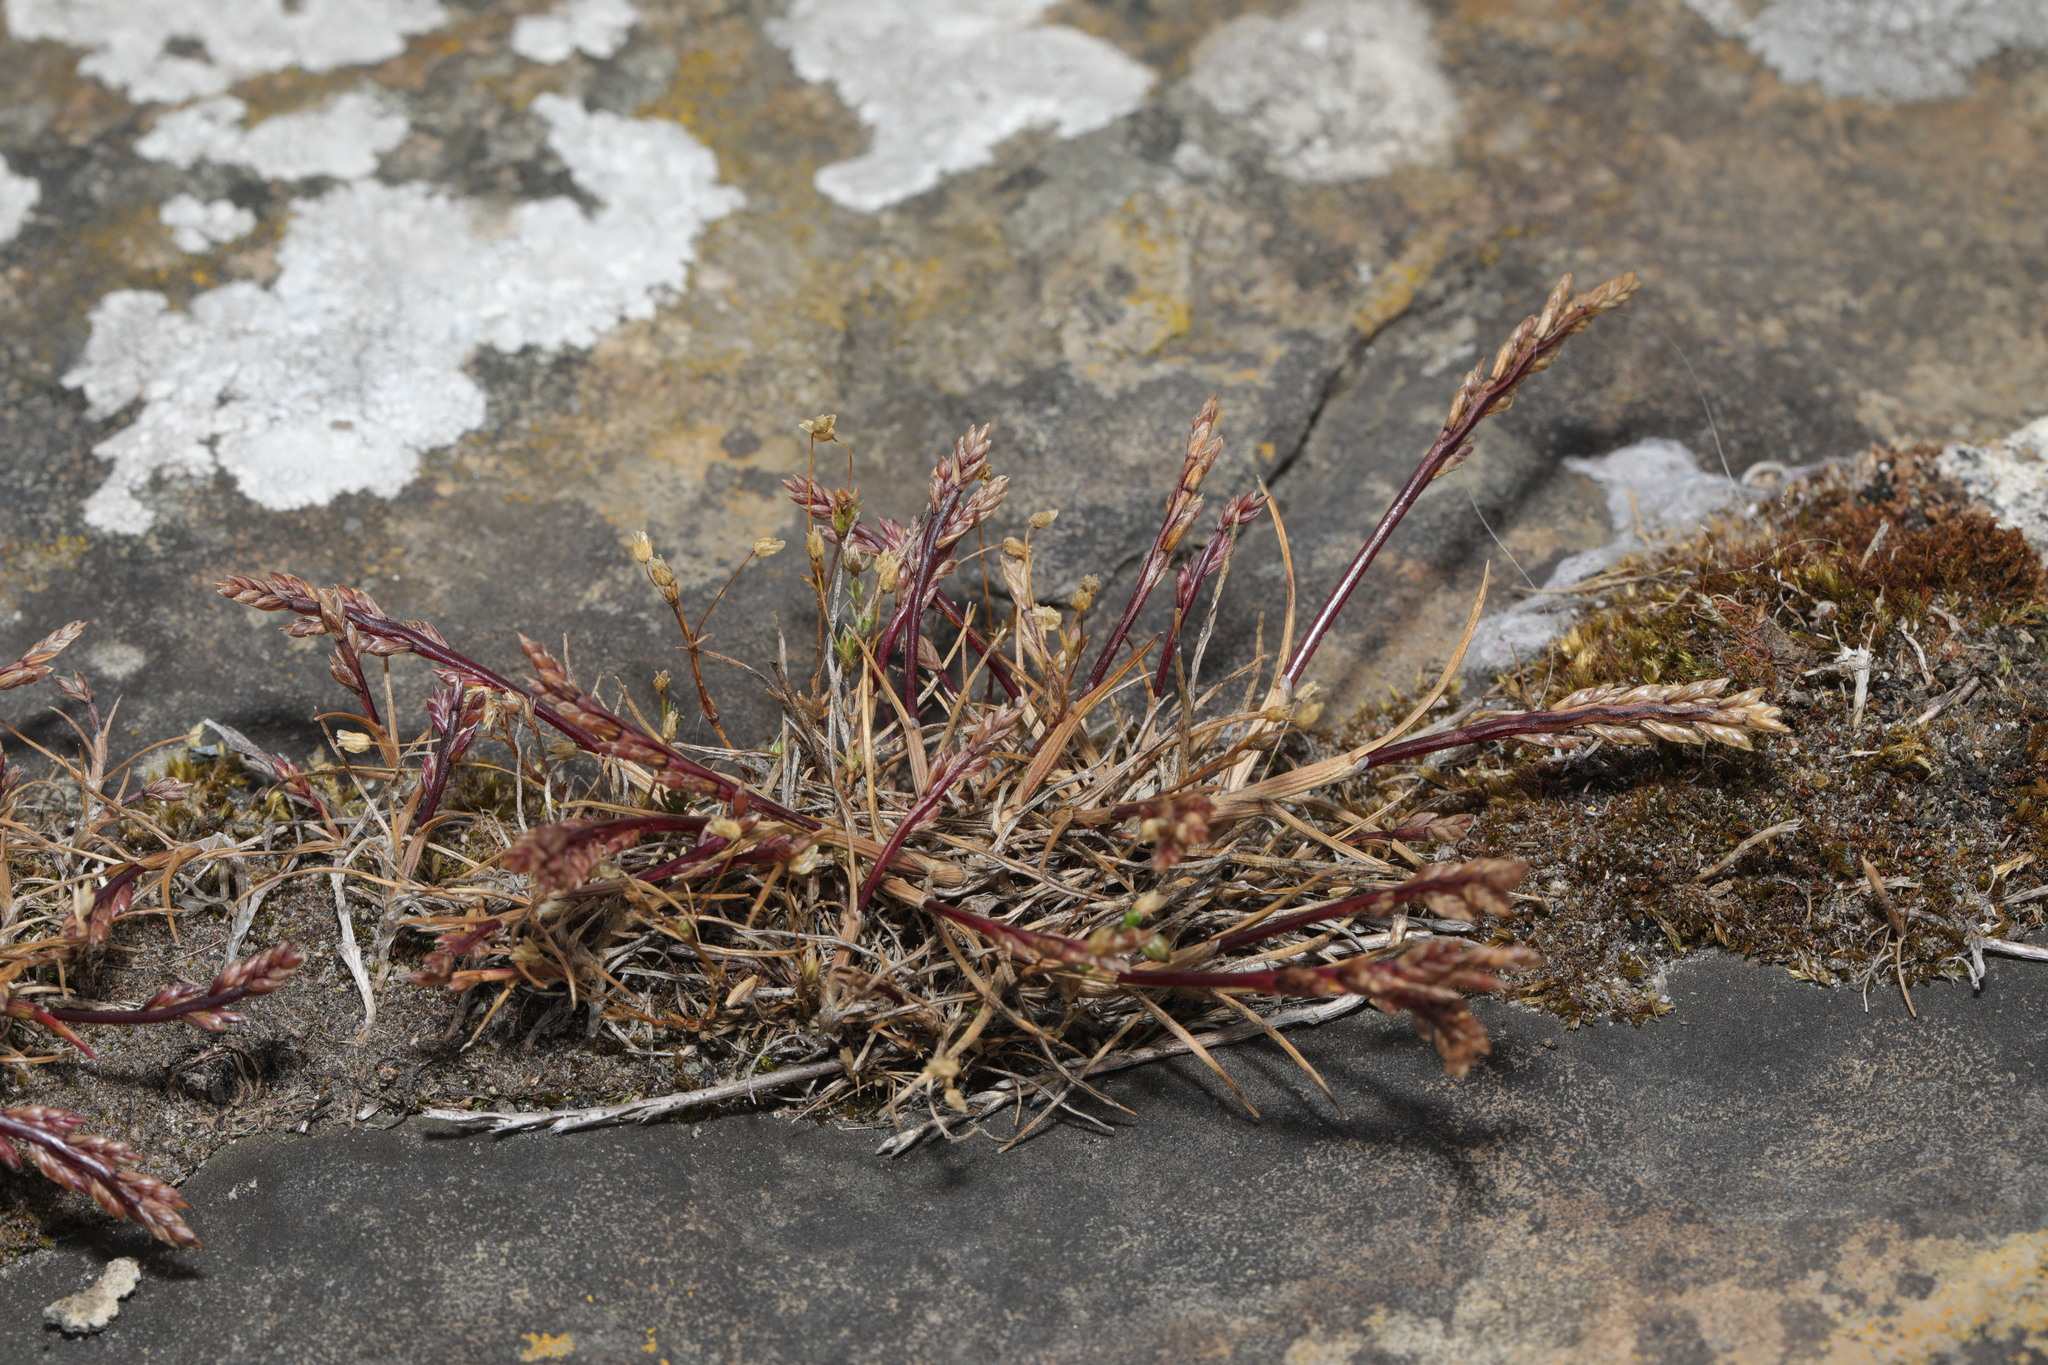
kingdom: Plantae
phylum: Tracheophyta
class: Liliopsida
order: Poales
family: Poaceae
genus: Catapodium
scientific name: Catapodium marinum
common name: Sea fern-grass
